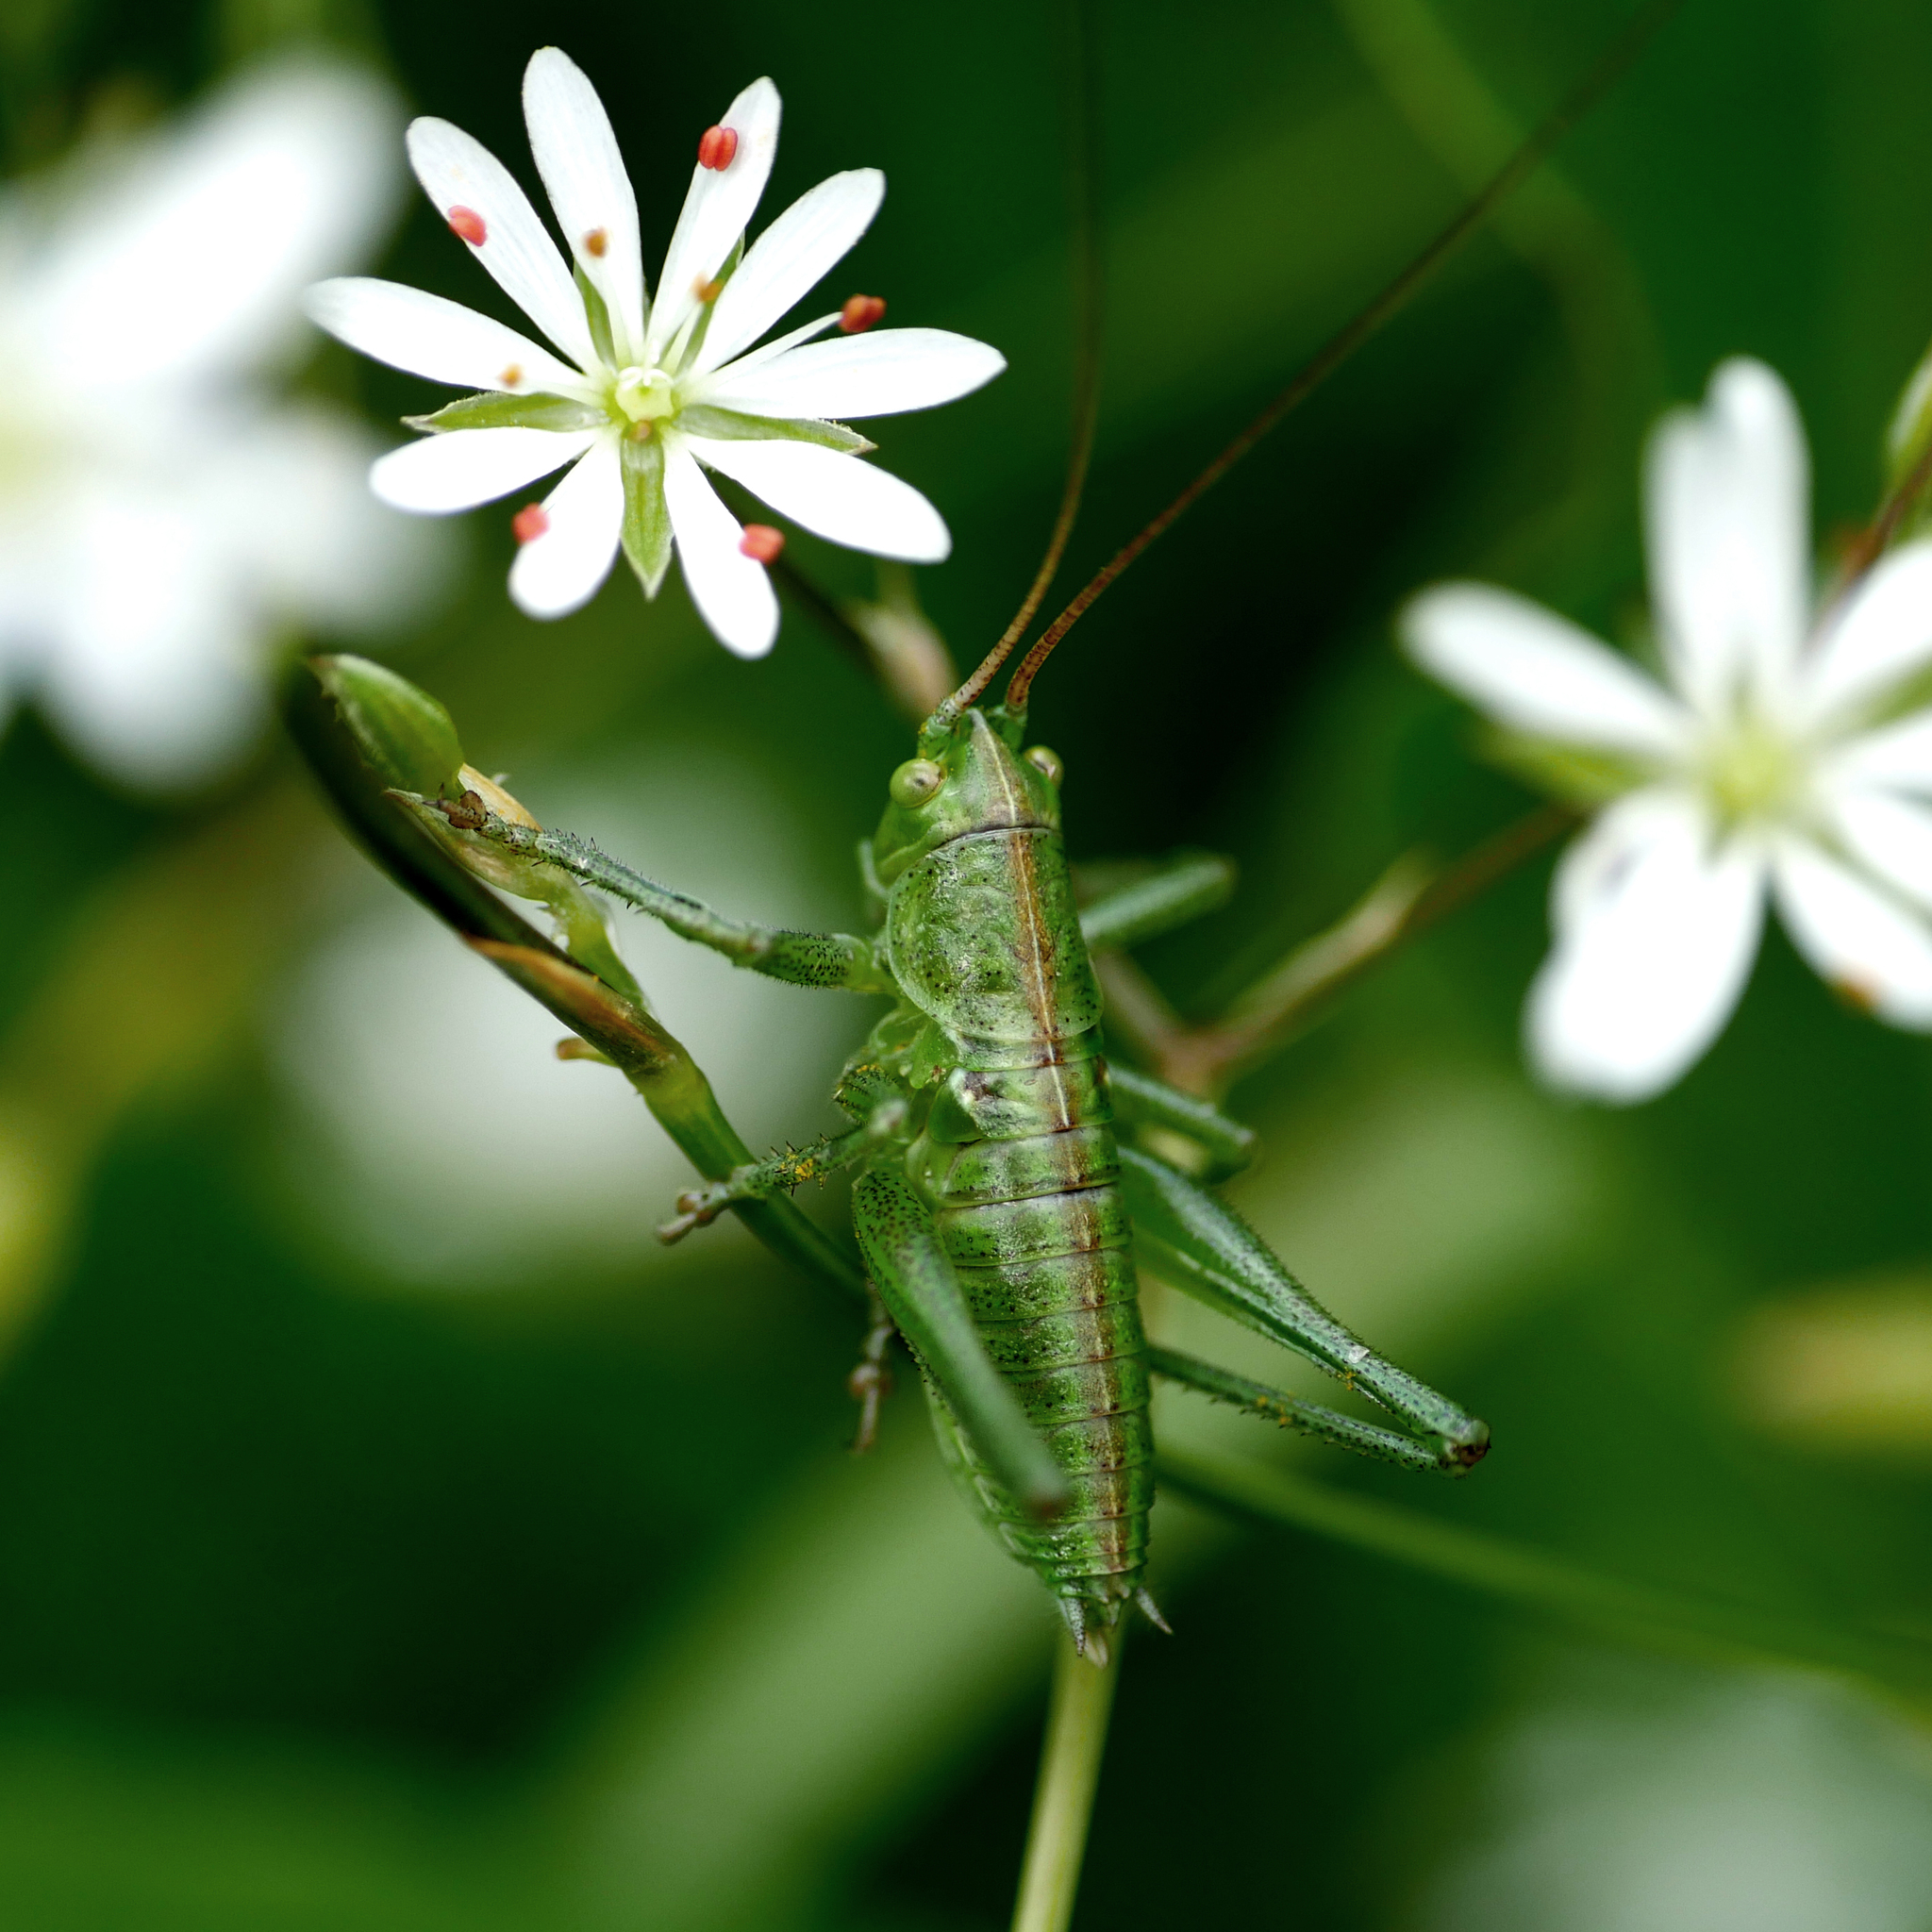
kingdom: Animalia
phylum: Arthropoda
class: Insecta
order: Orthoptera
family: Tettigoniidae
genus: Tettigonia
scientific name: Tettigonia viridissima
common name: Great green bush-cricket
